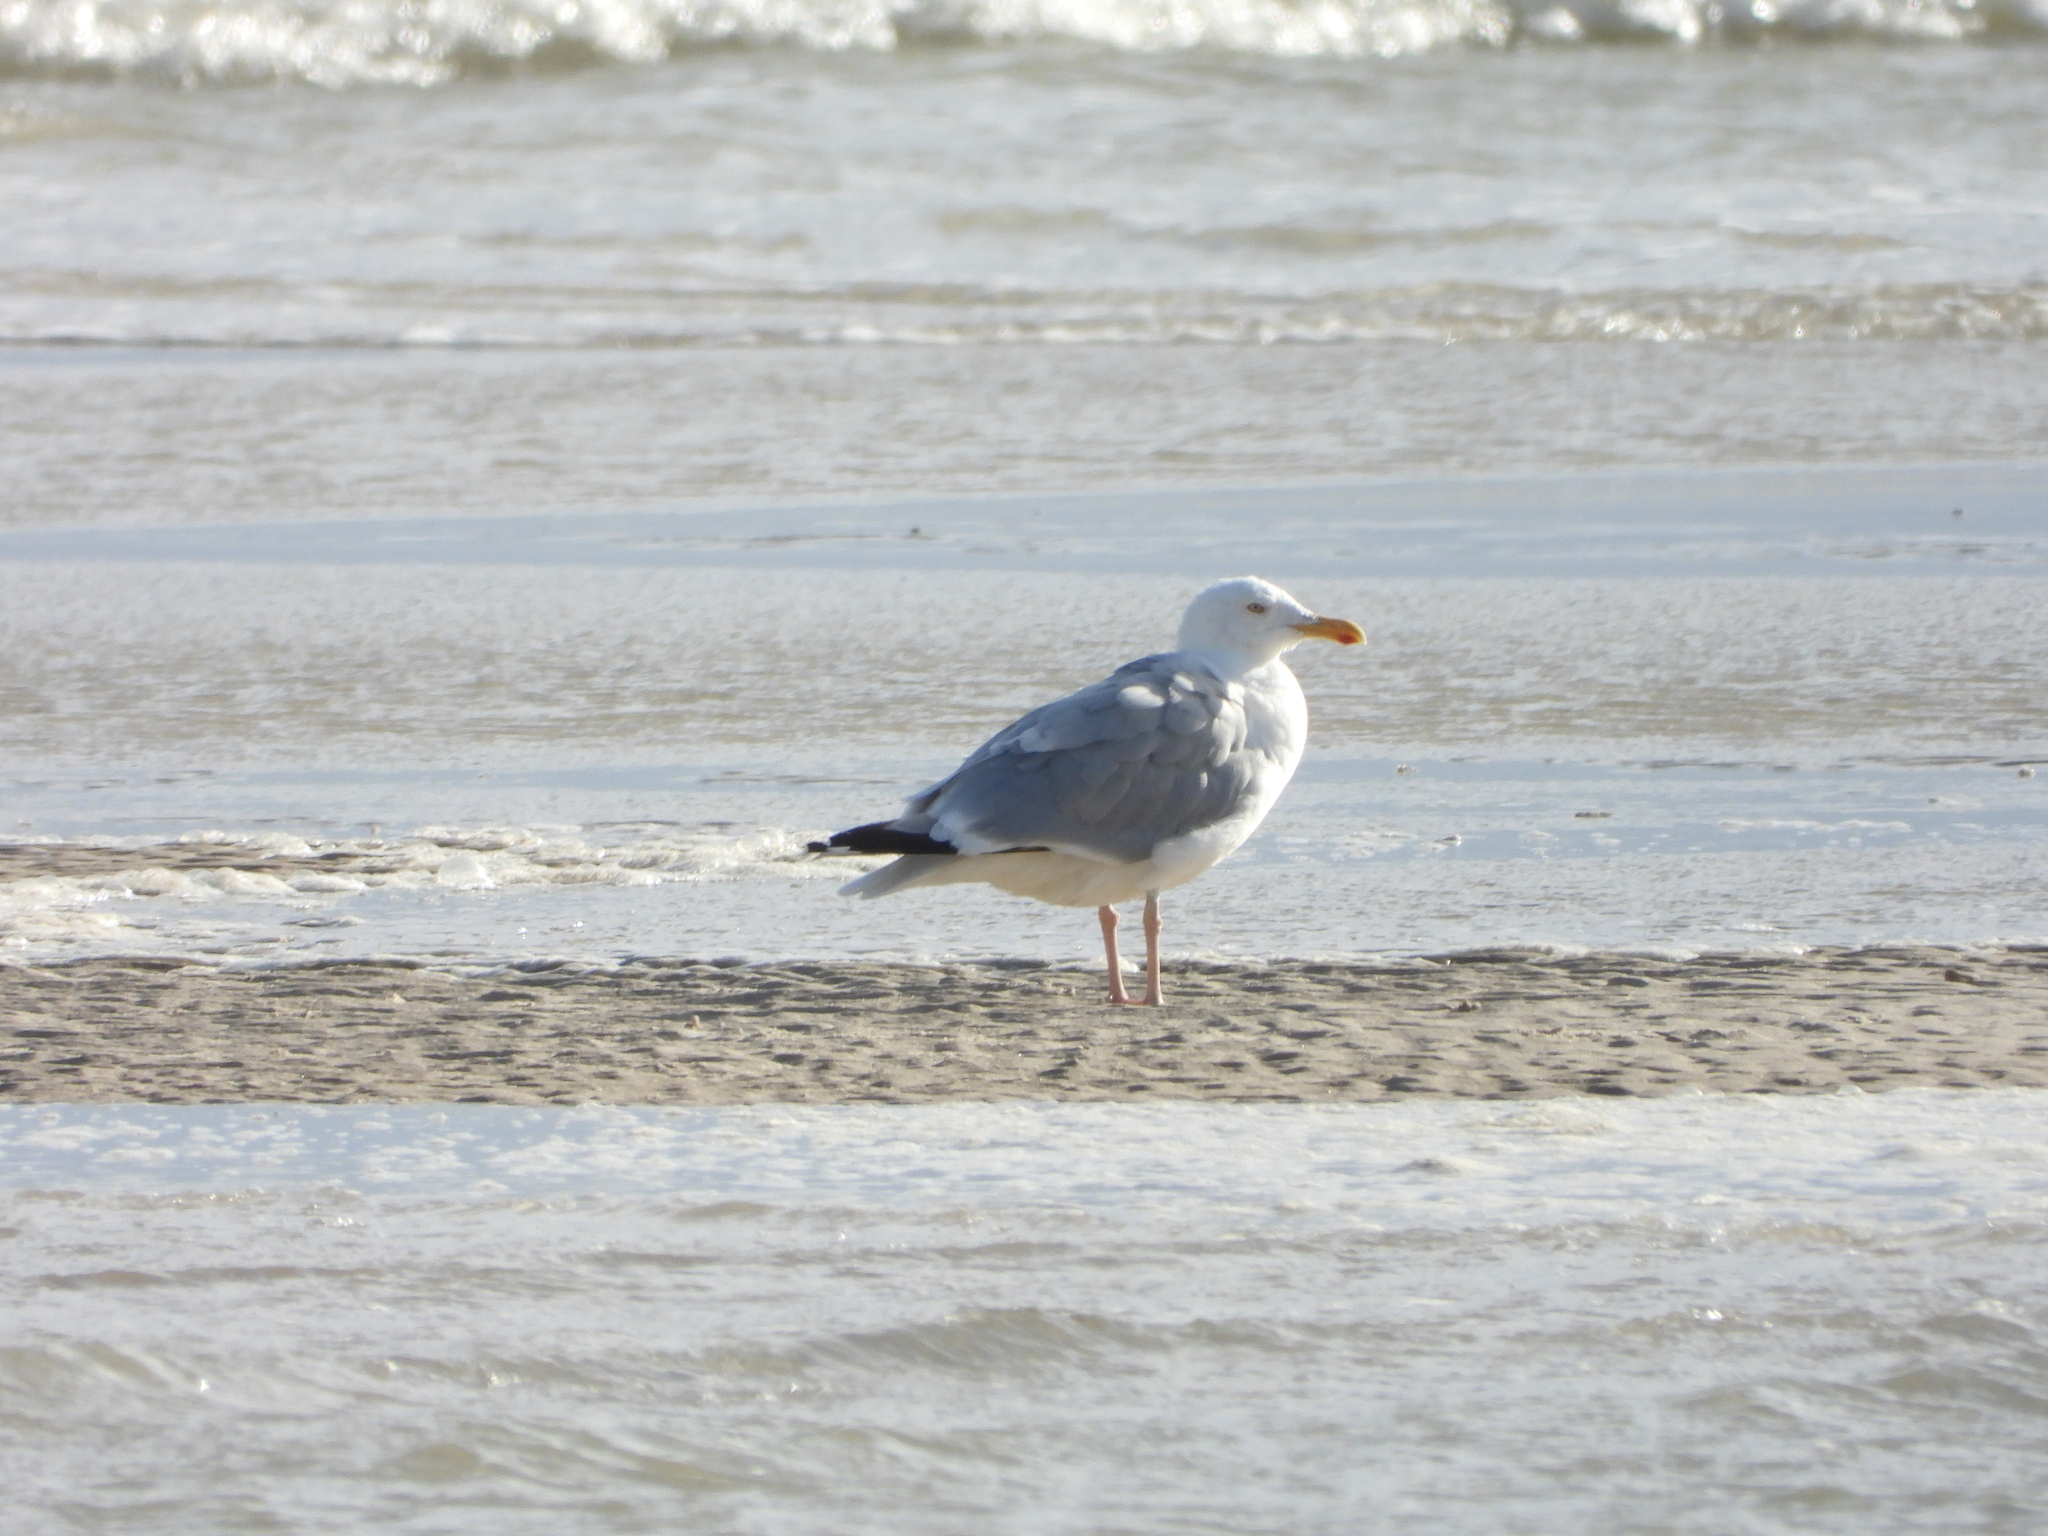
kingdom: Animalia
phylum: Chordata
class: Aves
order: Charadriiformes
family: Laridae
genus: Larus
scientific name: Larus argentatus
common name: Herring gull
